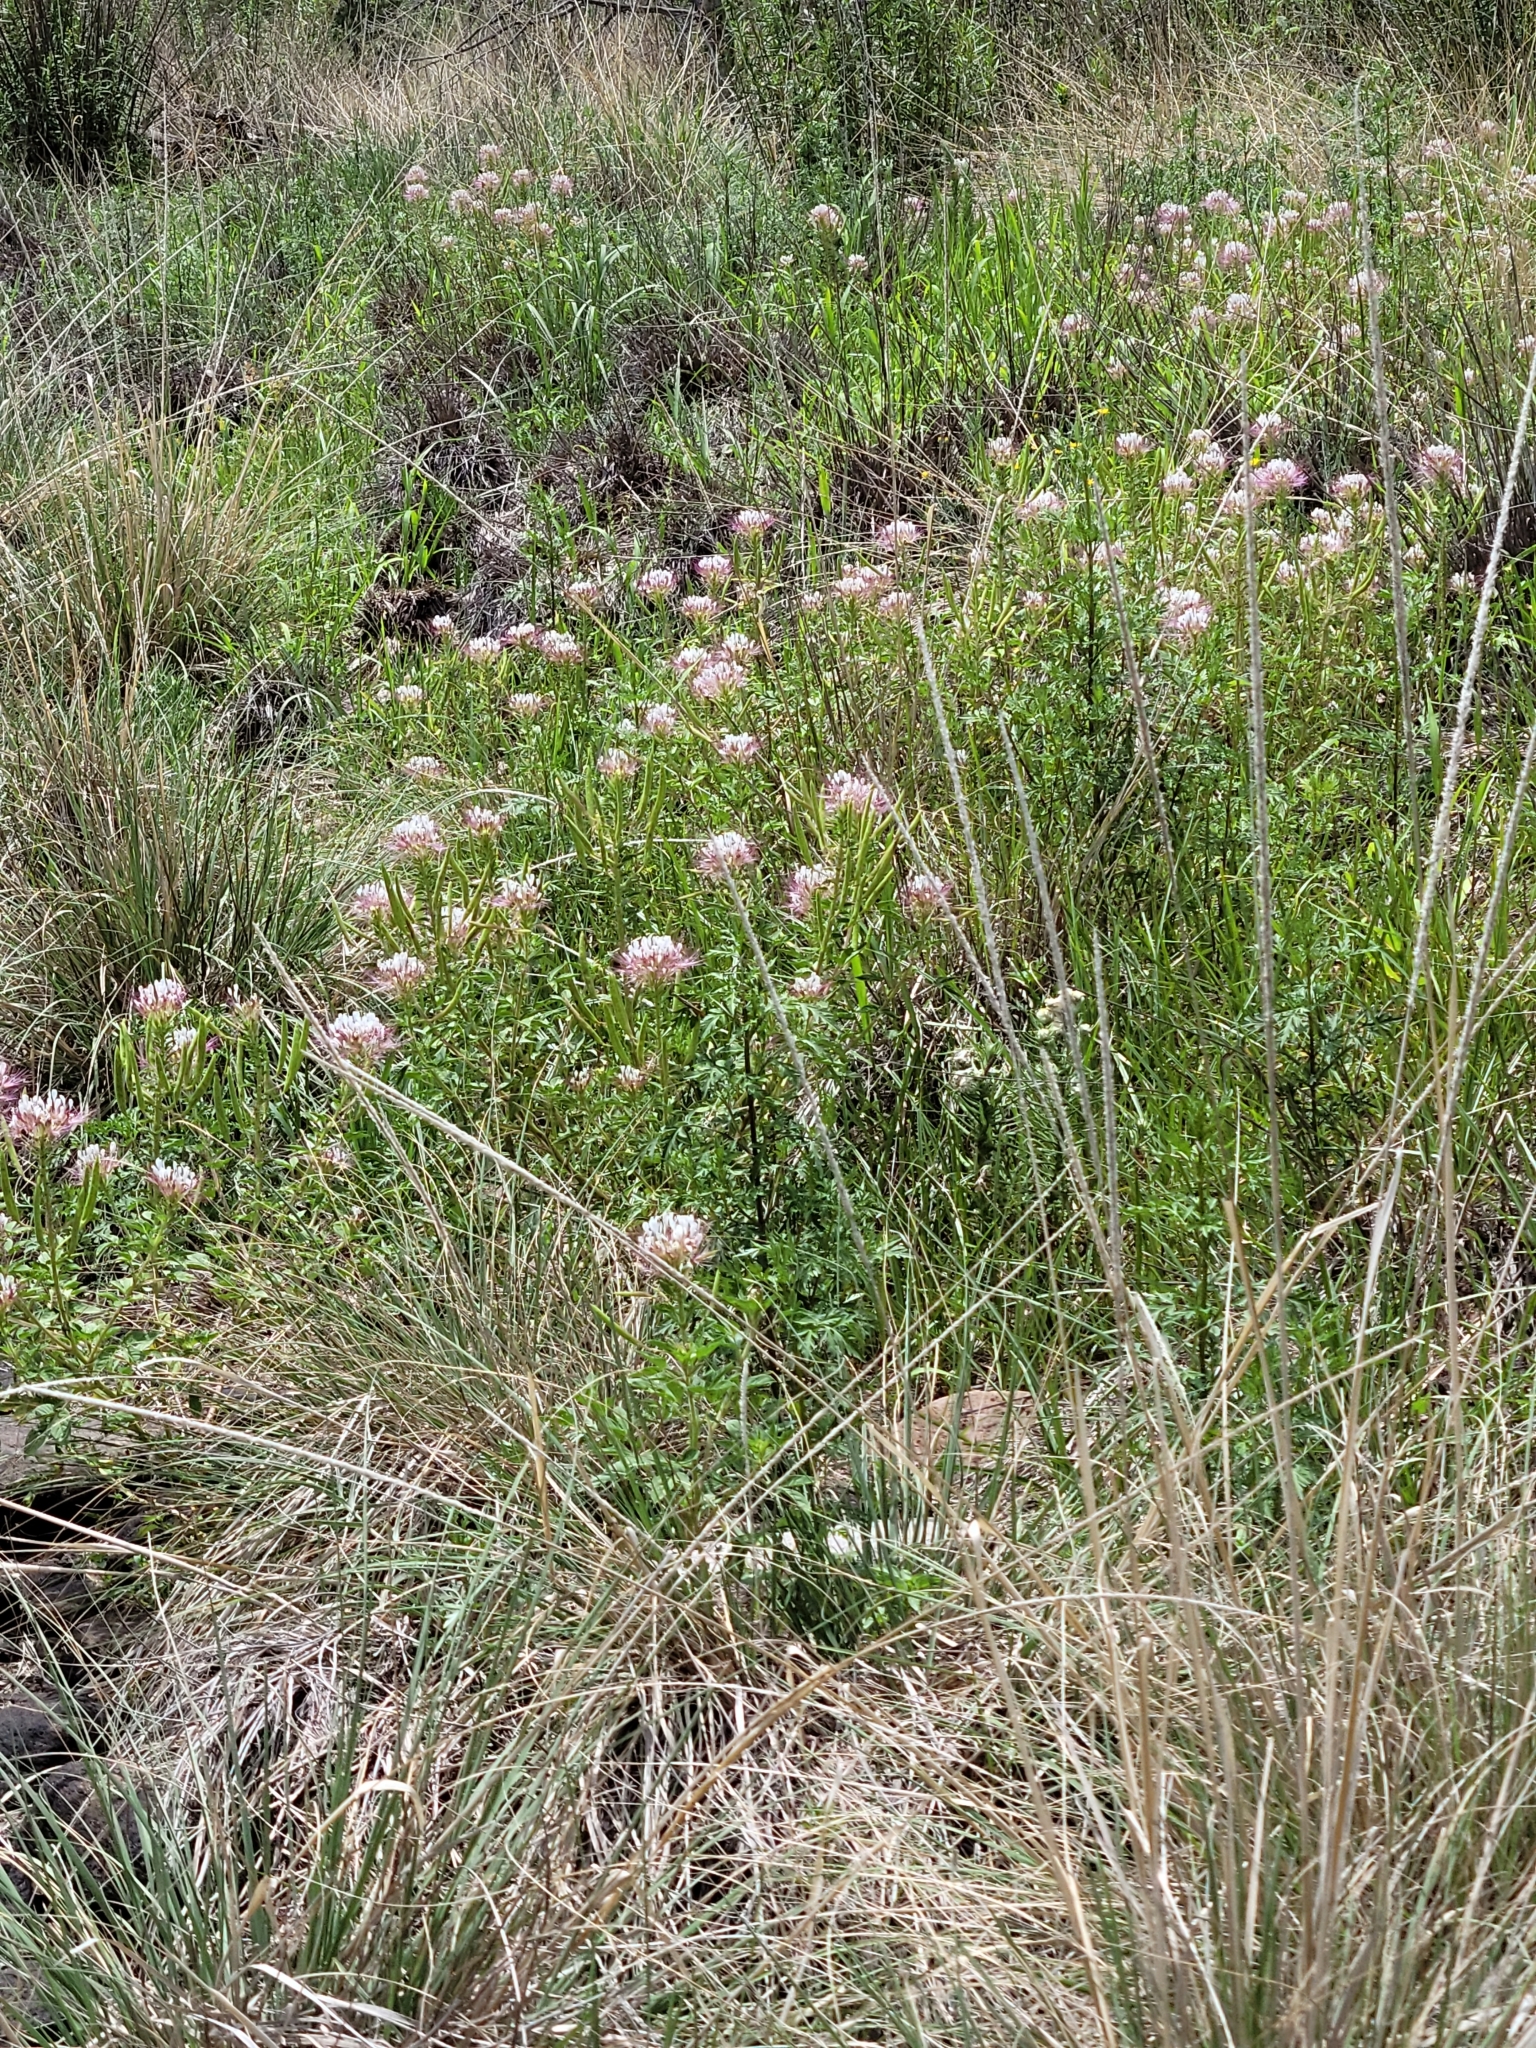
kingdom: Plantae
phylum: Tracheophyta
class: Magnoliopsida
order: Brassicales
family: Cleomaceae
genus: Polanisia
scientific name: Polanisia dodecandra
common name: Clammyweed
